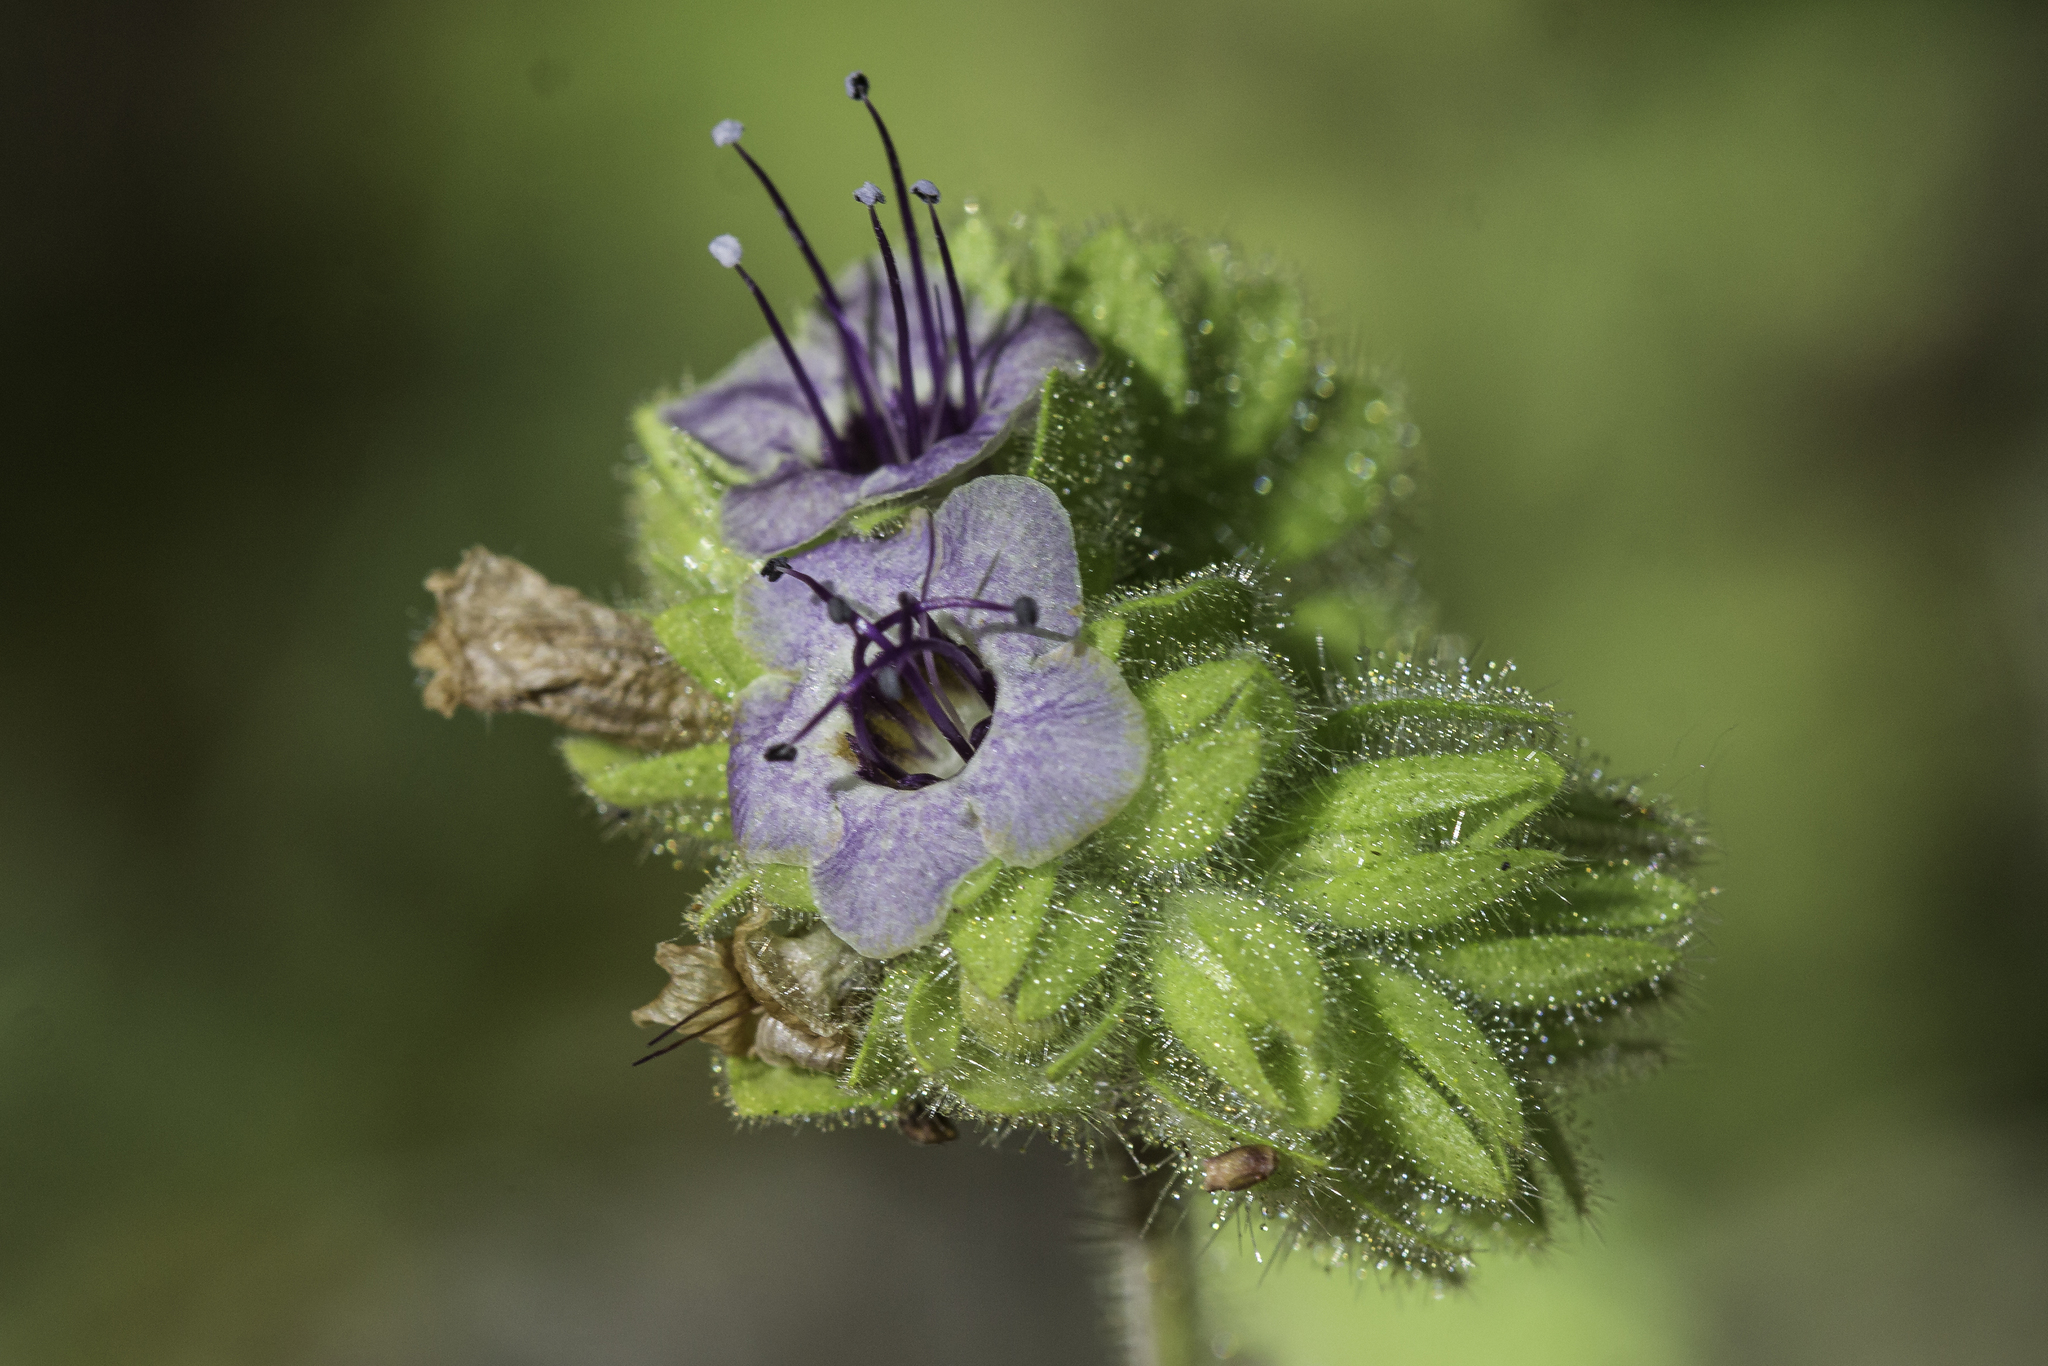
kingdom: Plantae
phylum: Tracheophyta
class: Magnoliopsida
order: Boraginales
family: Hydrophyllaceae
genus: Phacelia
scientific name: Phacelia ramosissima
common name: Branching phacelia
